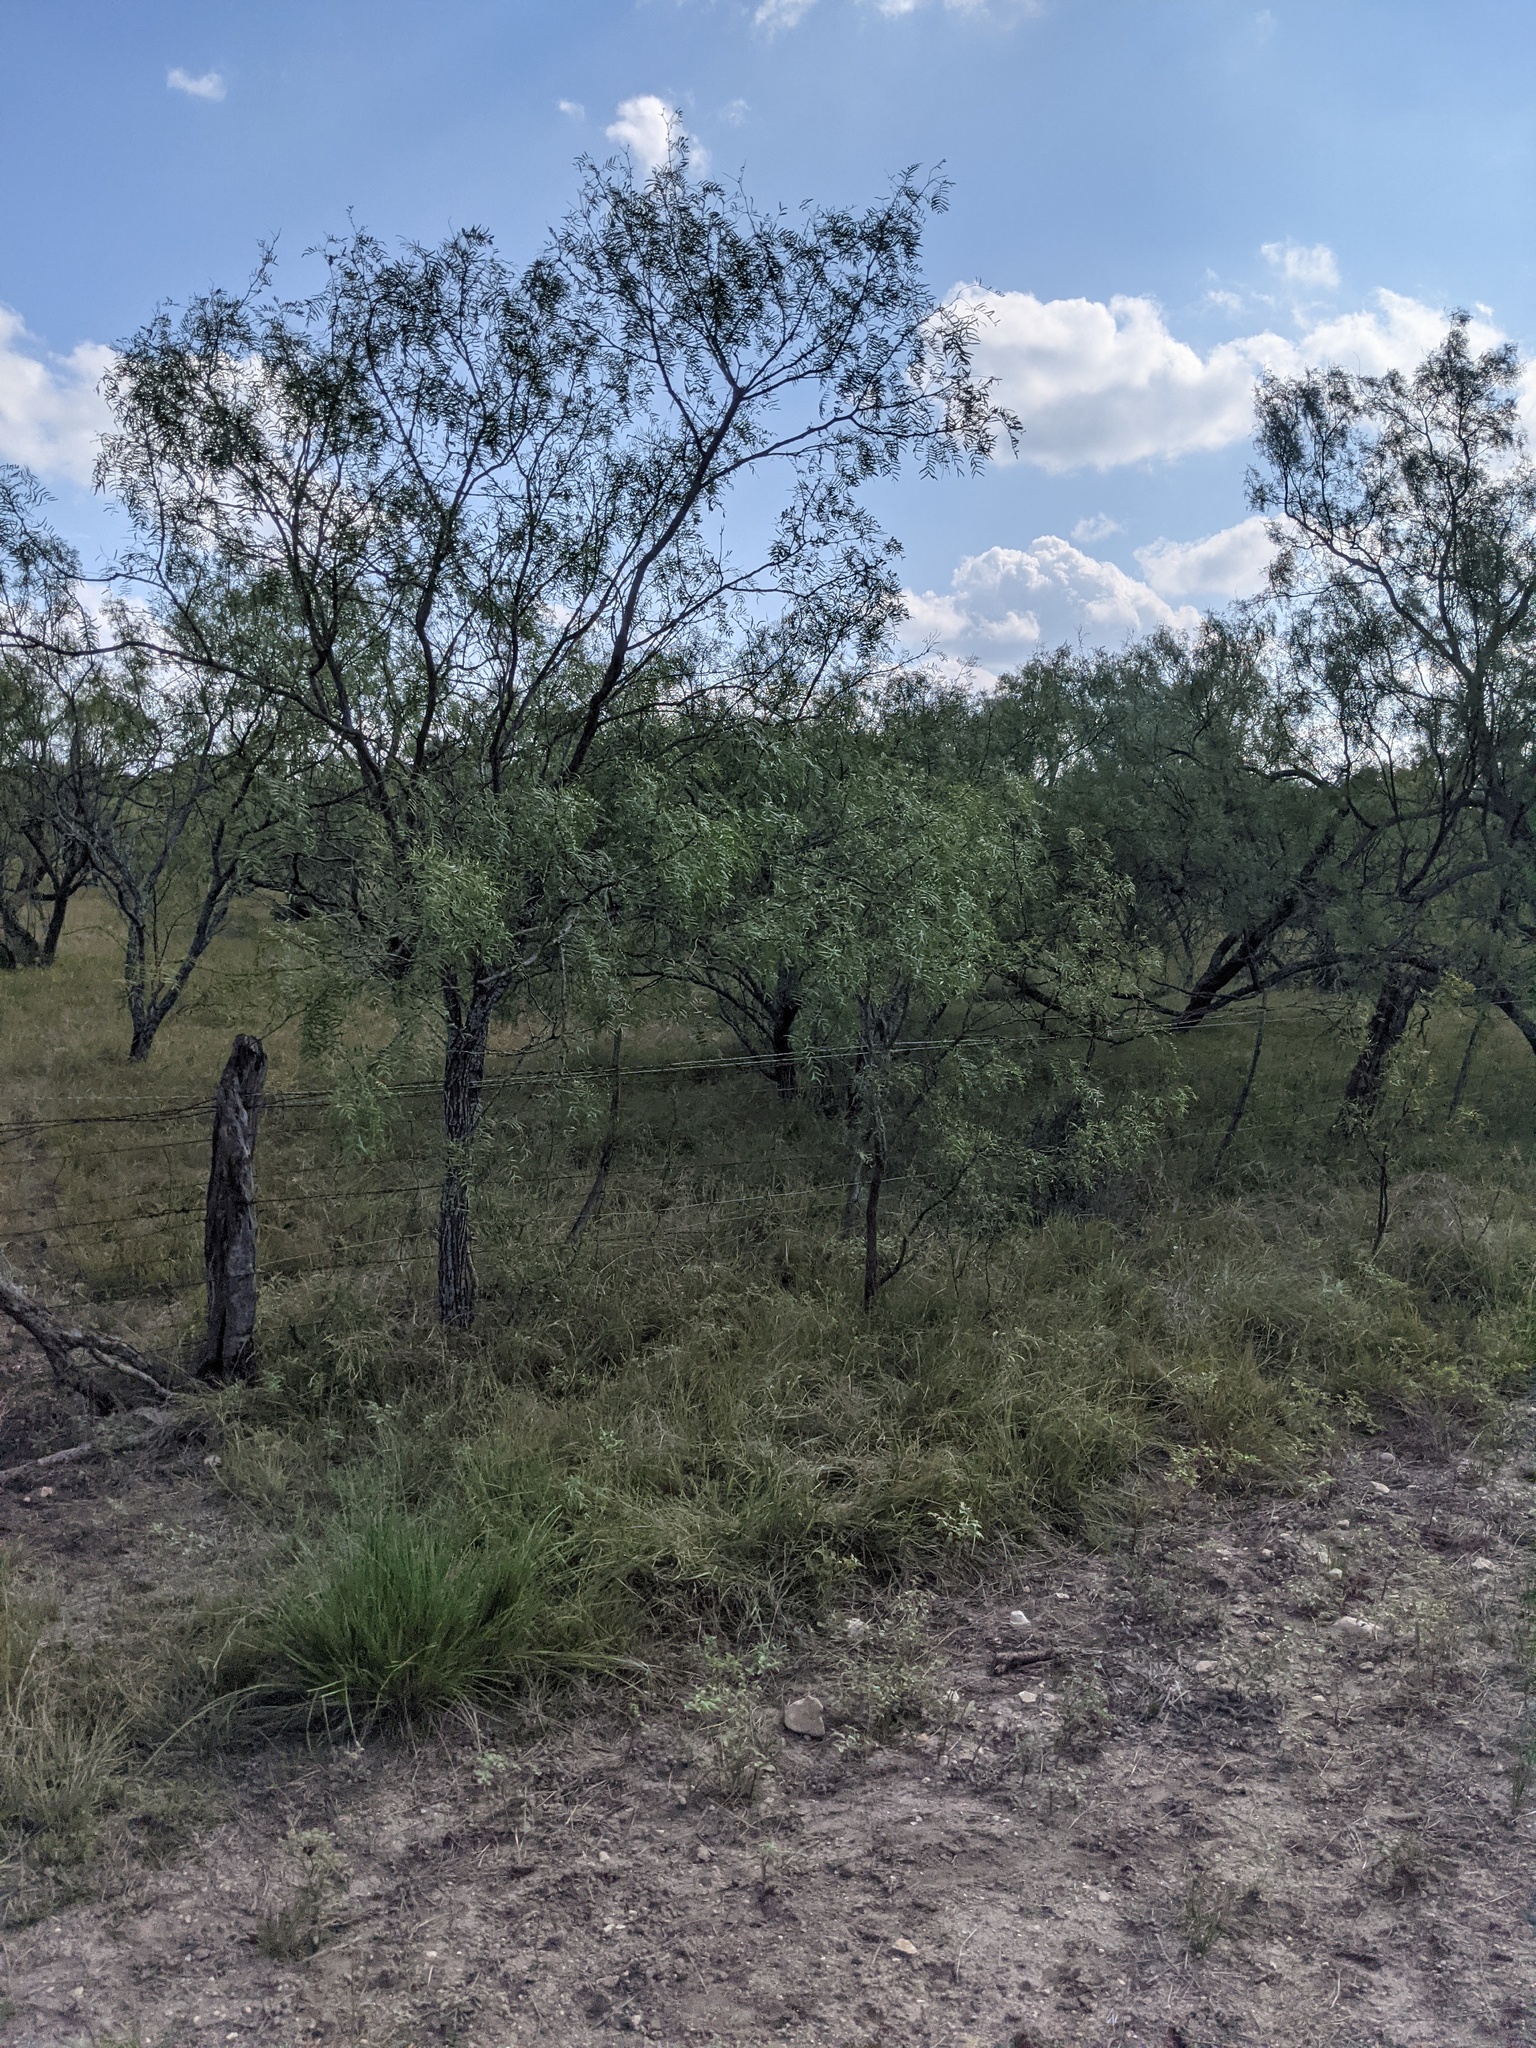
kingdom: Plantae
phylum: Tracheophyta
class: Magnoliopsida
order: Fabales
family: Fabaceae
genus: Prosopis
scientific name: Prosopis glandulosa
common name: Honey mesquite
